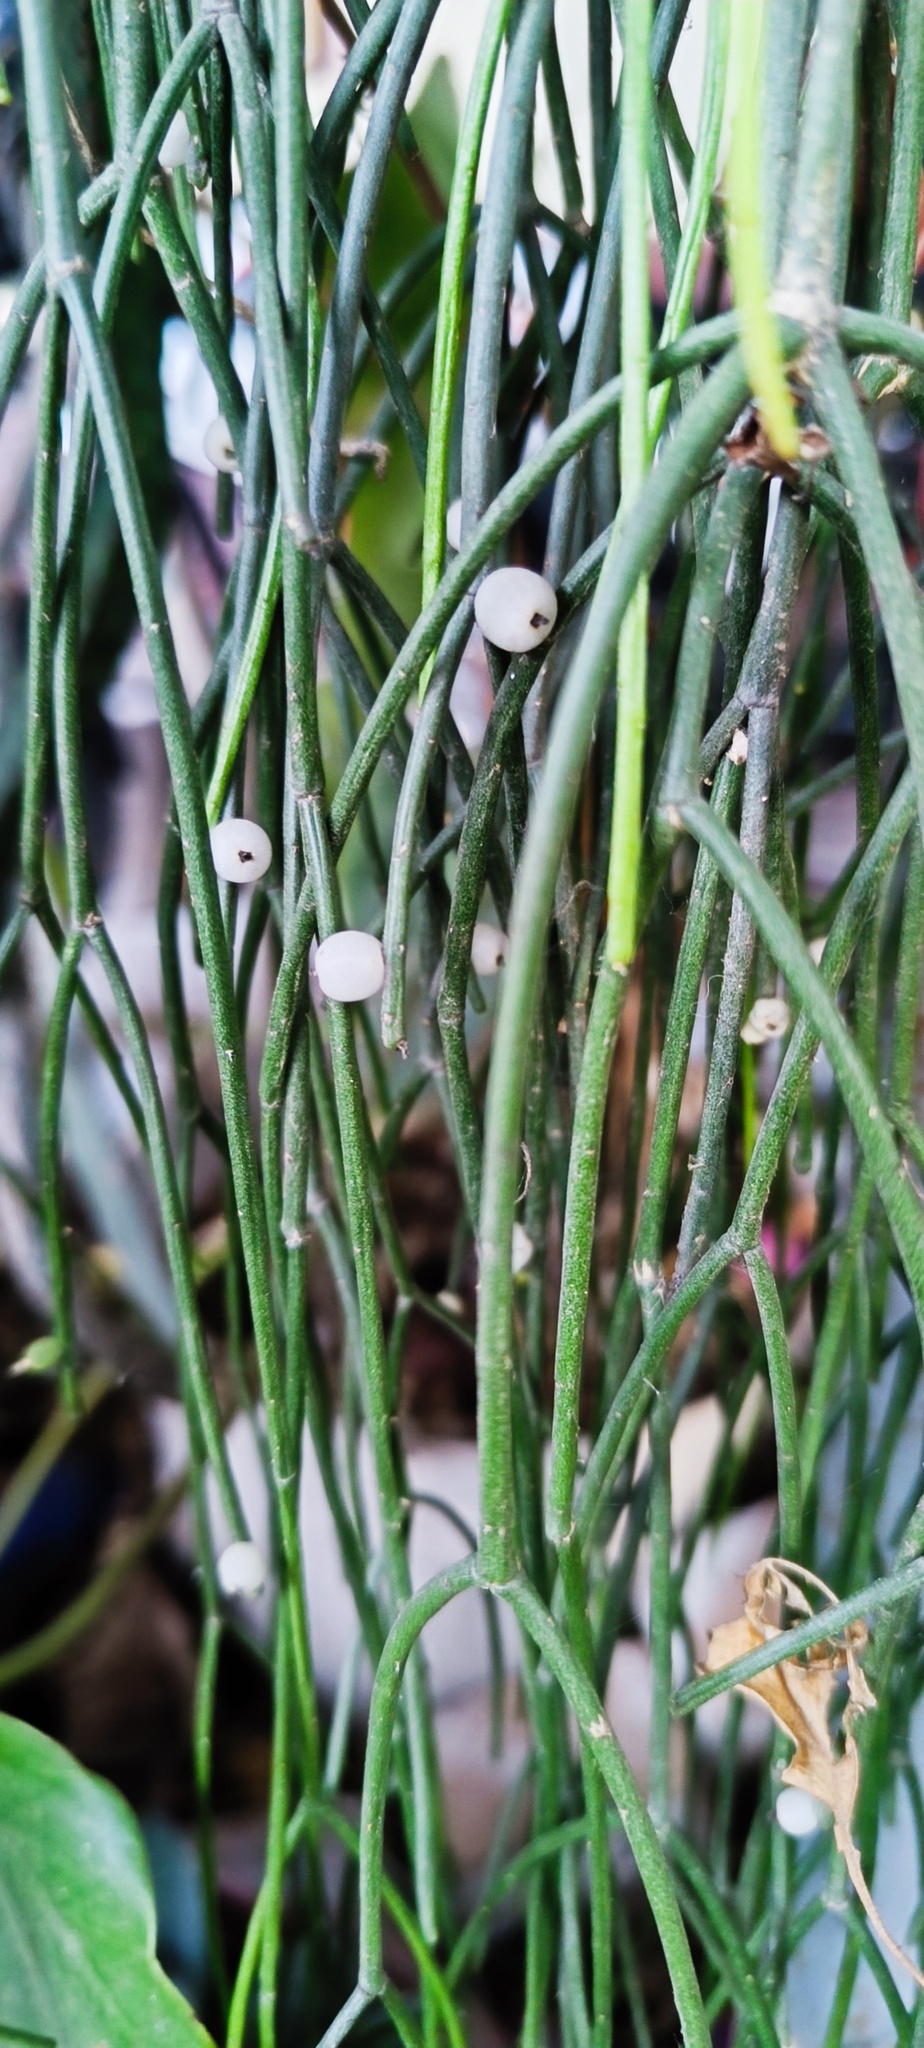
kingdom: Plantae
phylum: Tracheophyta
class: Magnoliopsida
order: Caryophyllales
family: Cactaceae
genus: Rhipsalis
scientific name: Rhipsalis baccifera
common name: Mistletoe cactus
